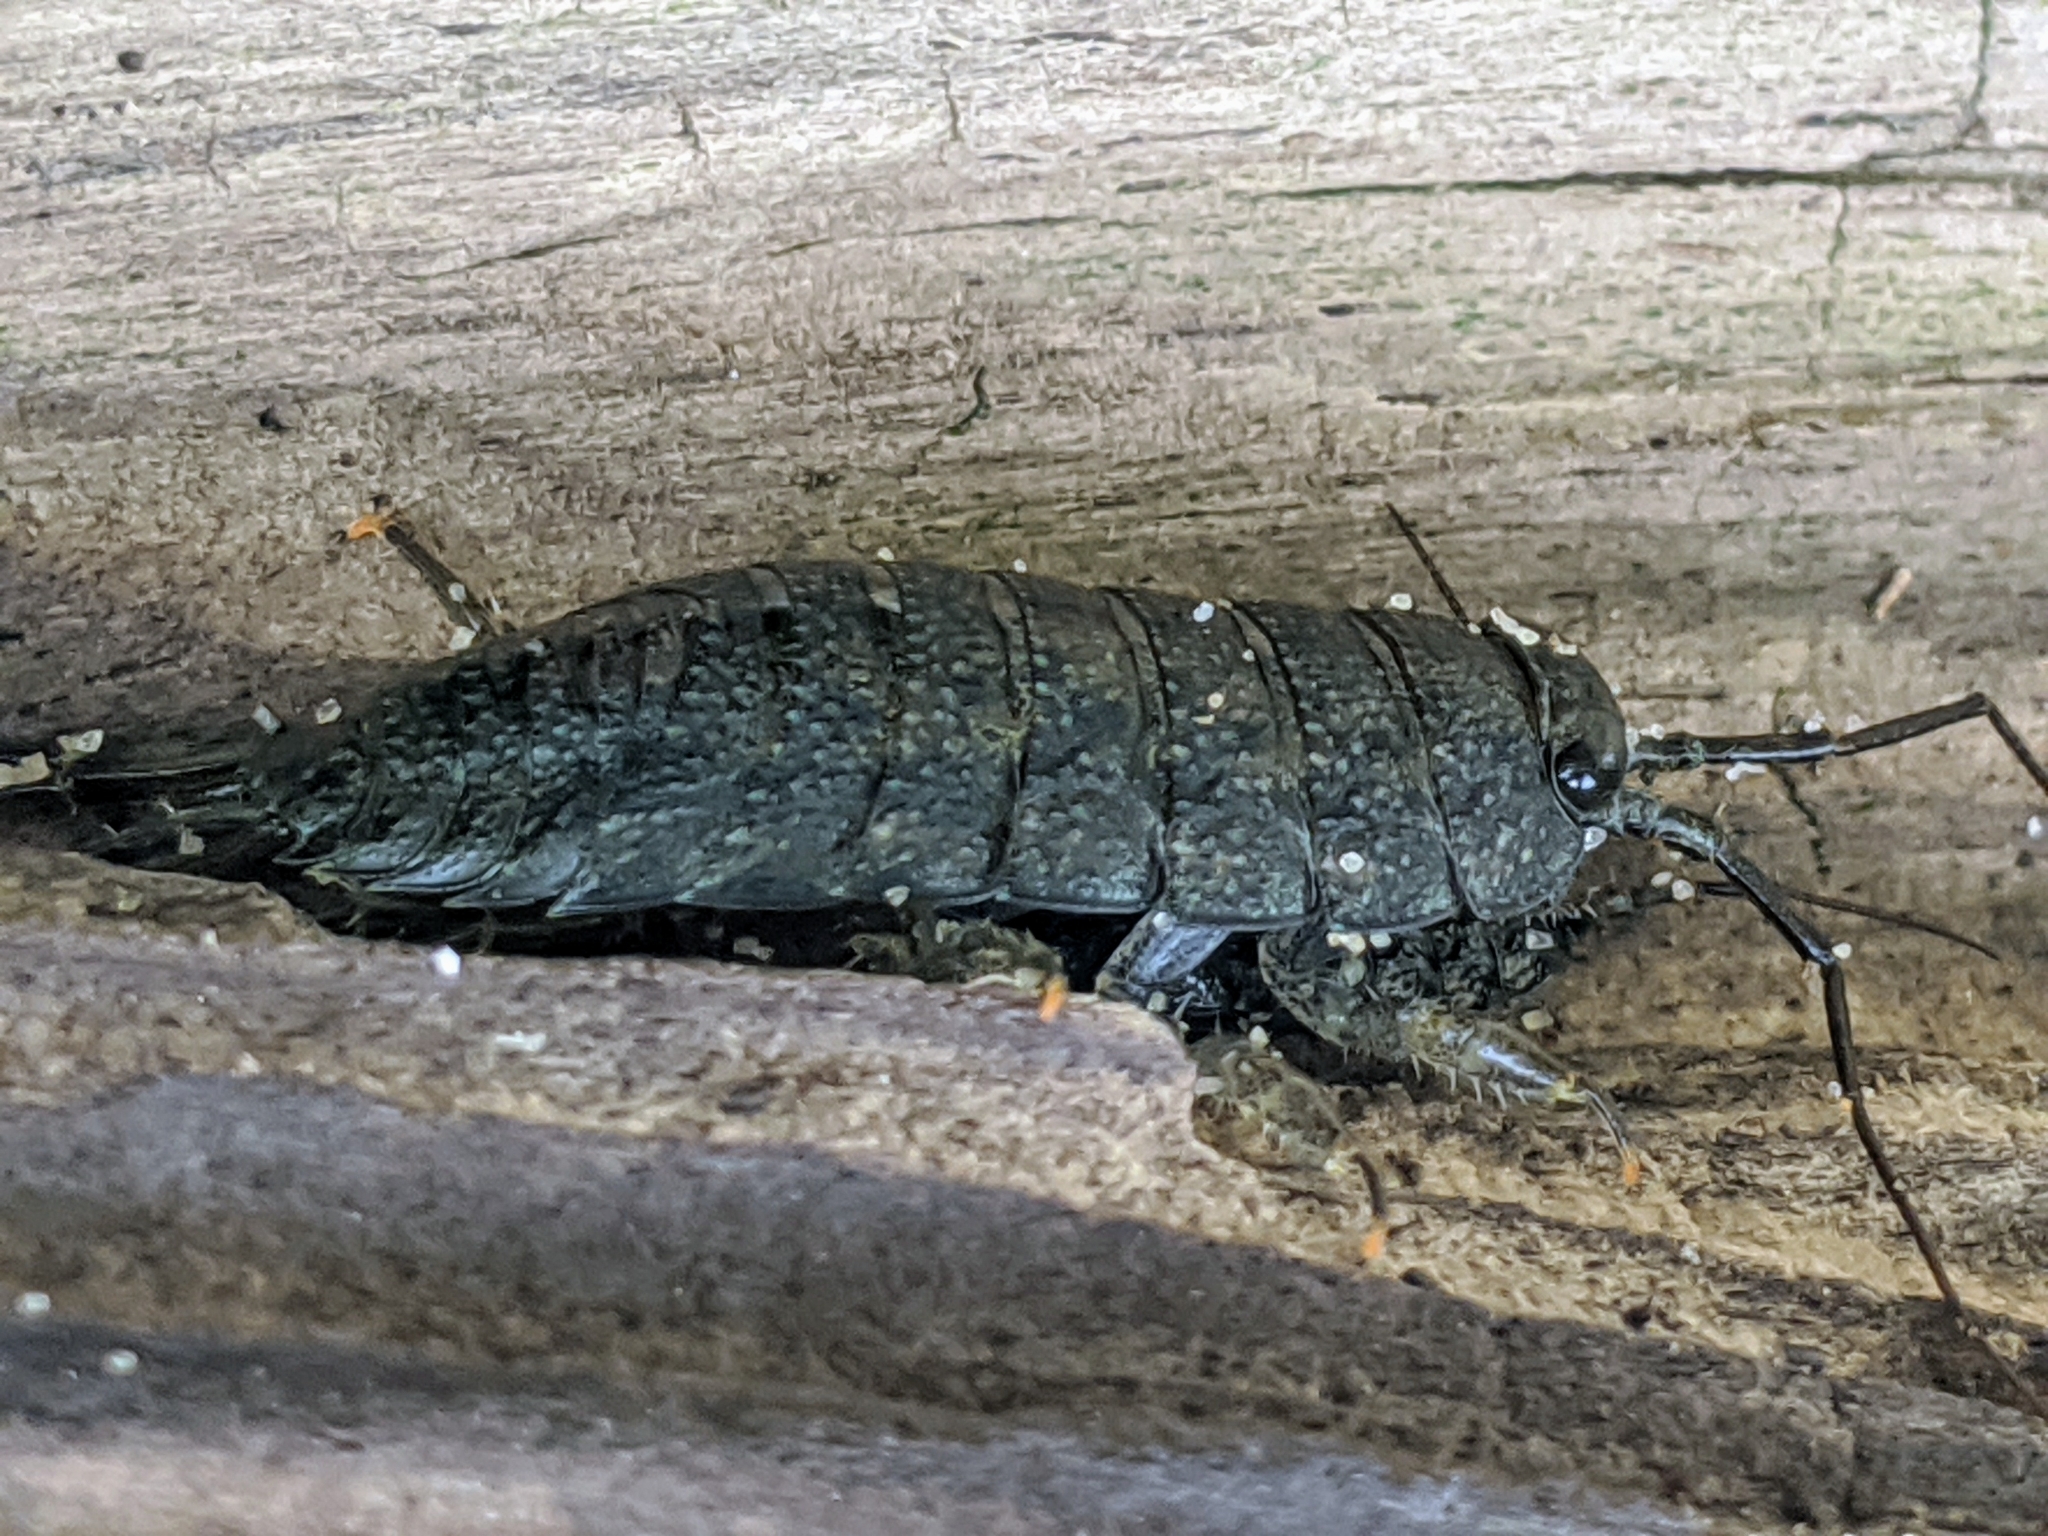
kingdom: Animalia
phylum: Arthropoda
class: Malacostraca
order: Isopoda
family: Ligiidae
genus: Ligia
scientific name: Ligia occidentalis
